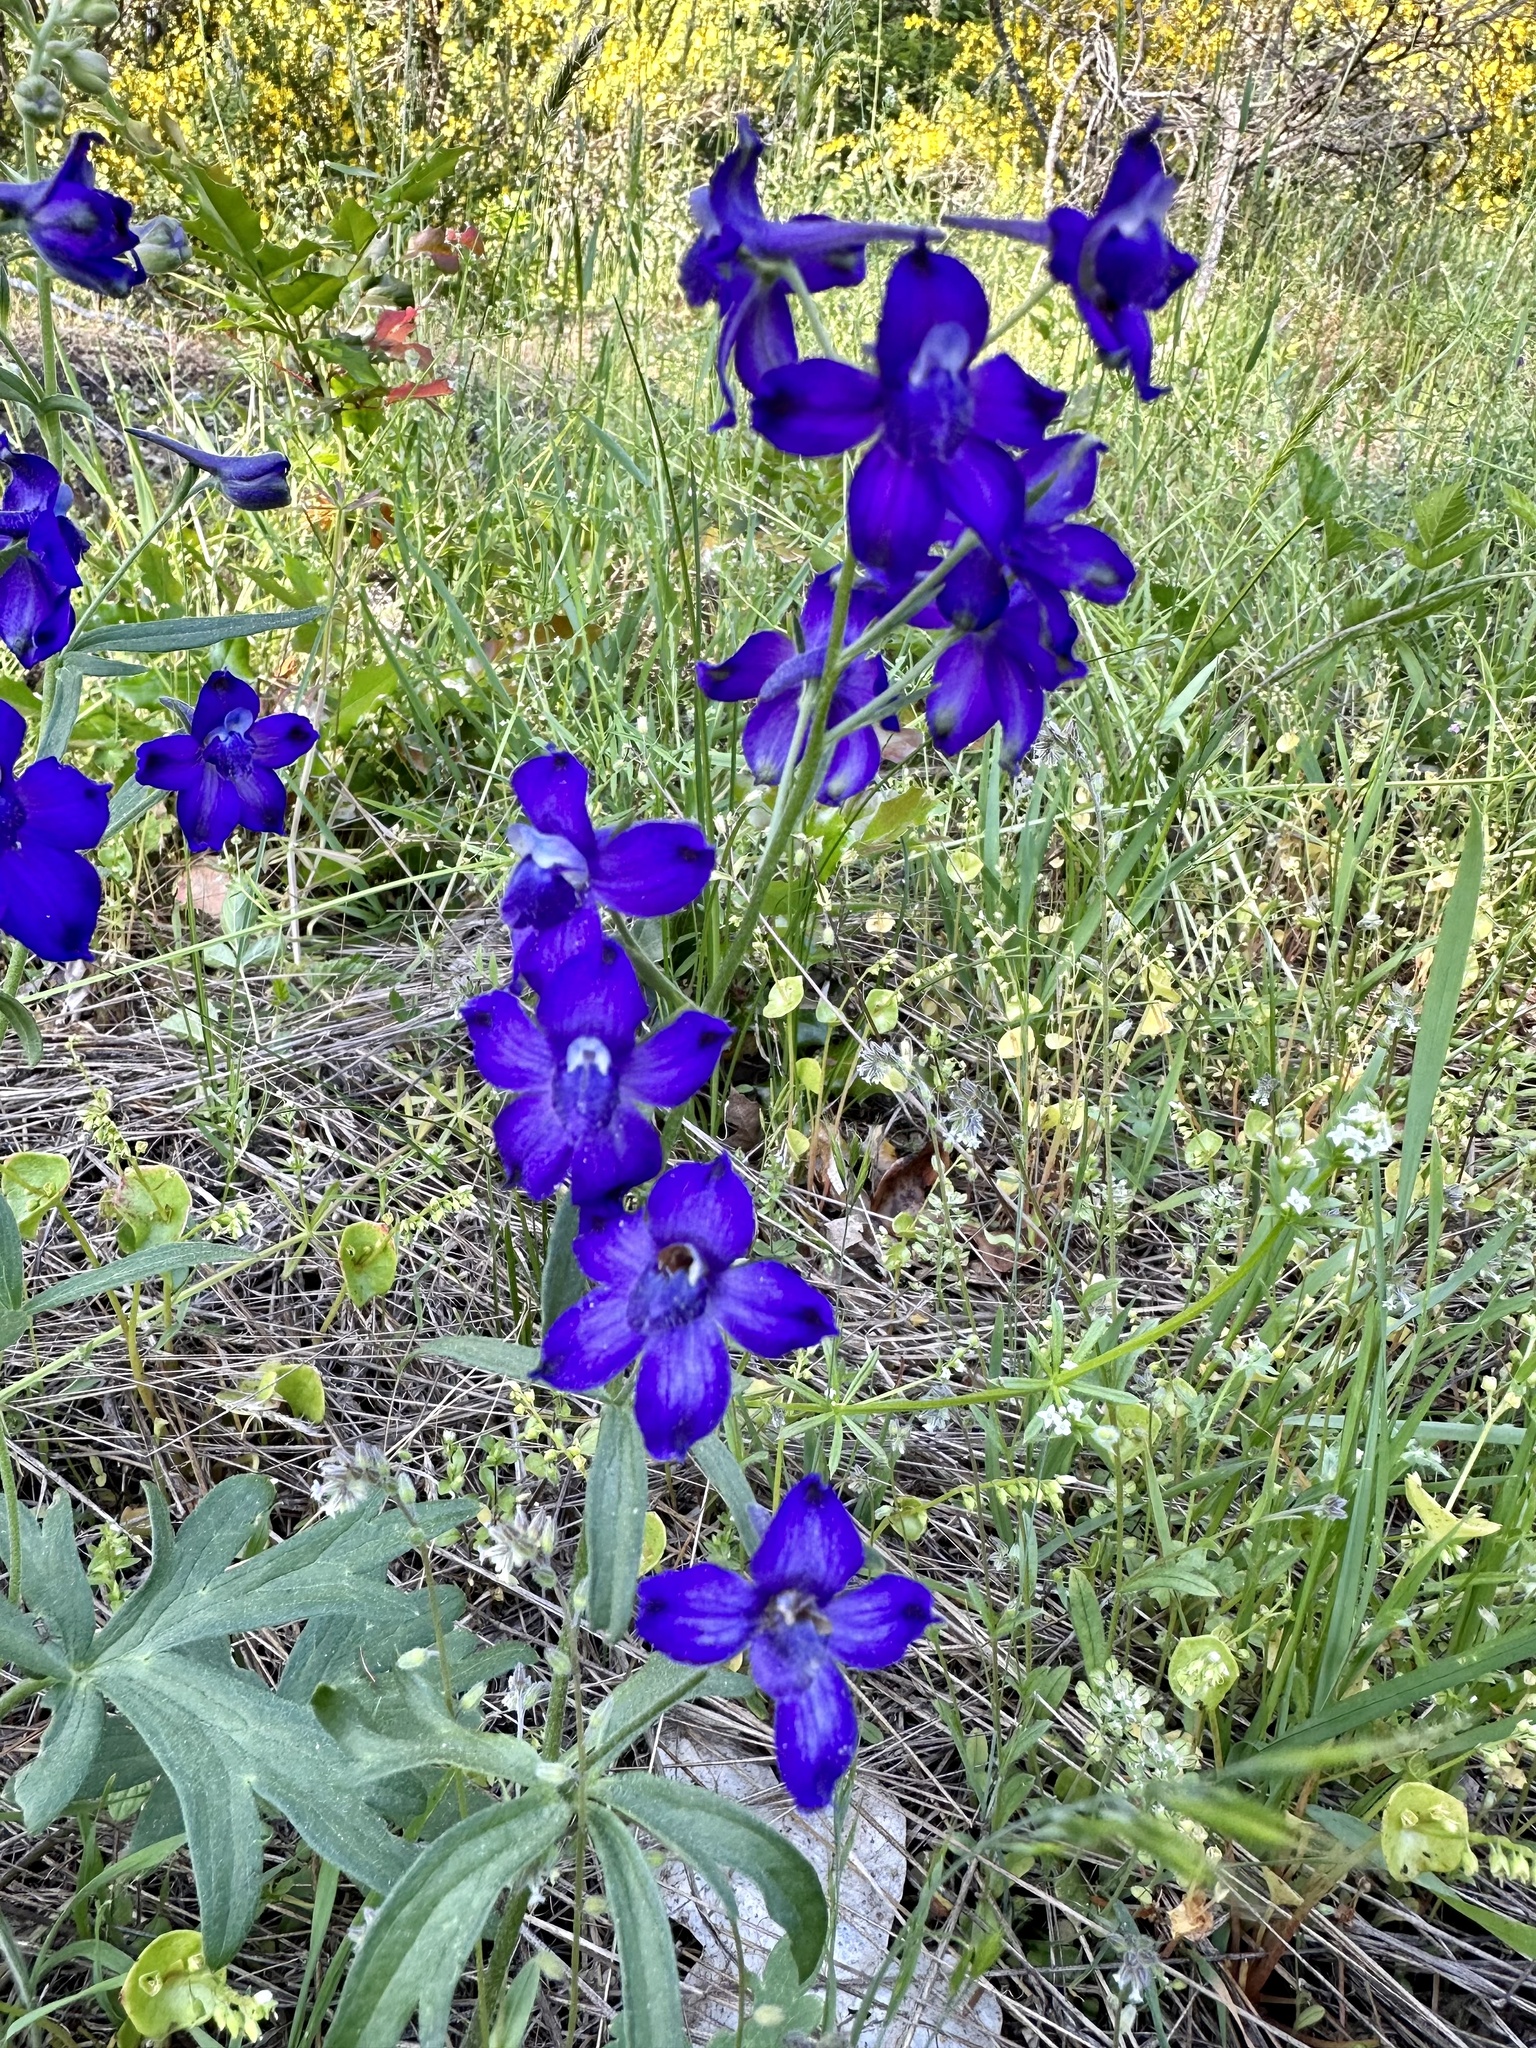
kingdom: Plantae
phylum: Tracheophyta
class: Magnoliopsida
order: Ranunculales
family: Ranunculaceae
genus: Delphinium
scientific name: Delphinium menziesii
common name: Menzies's larkspur
